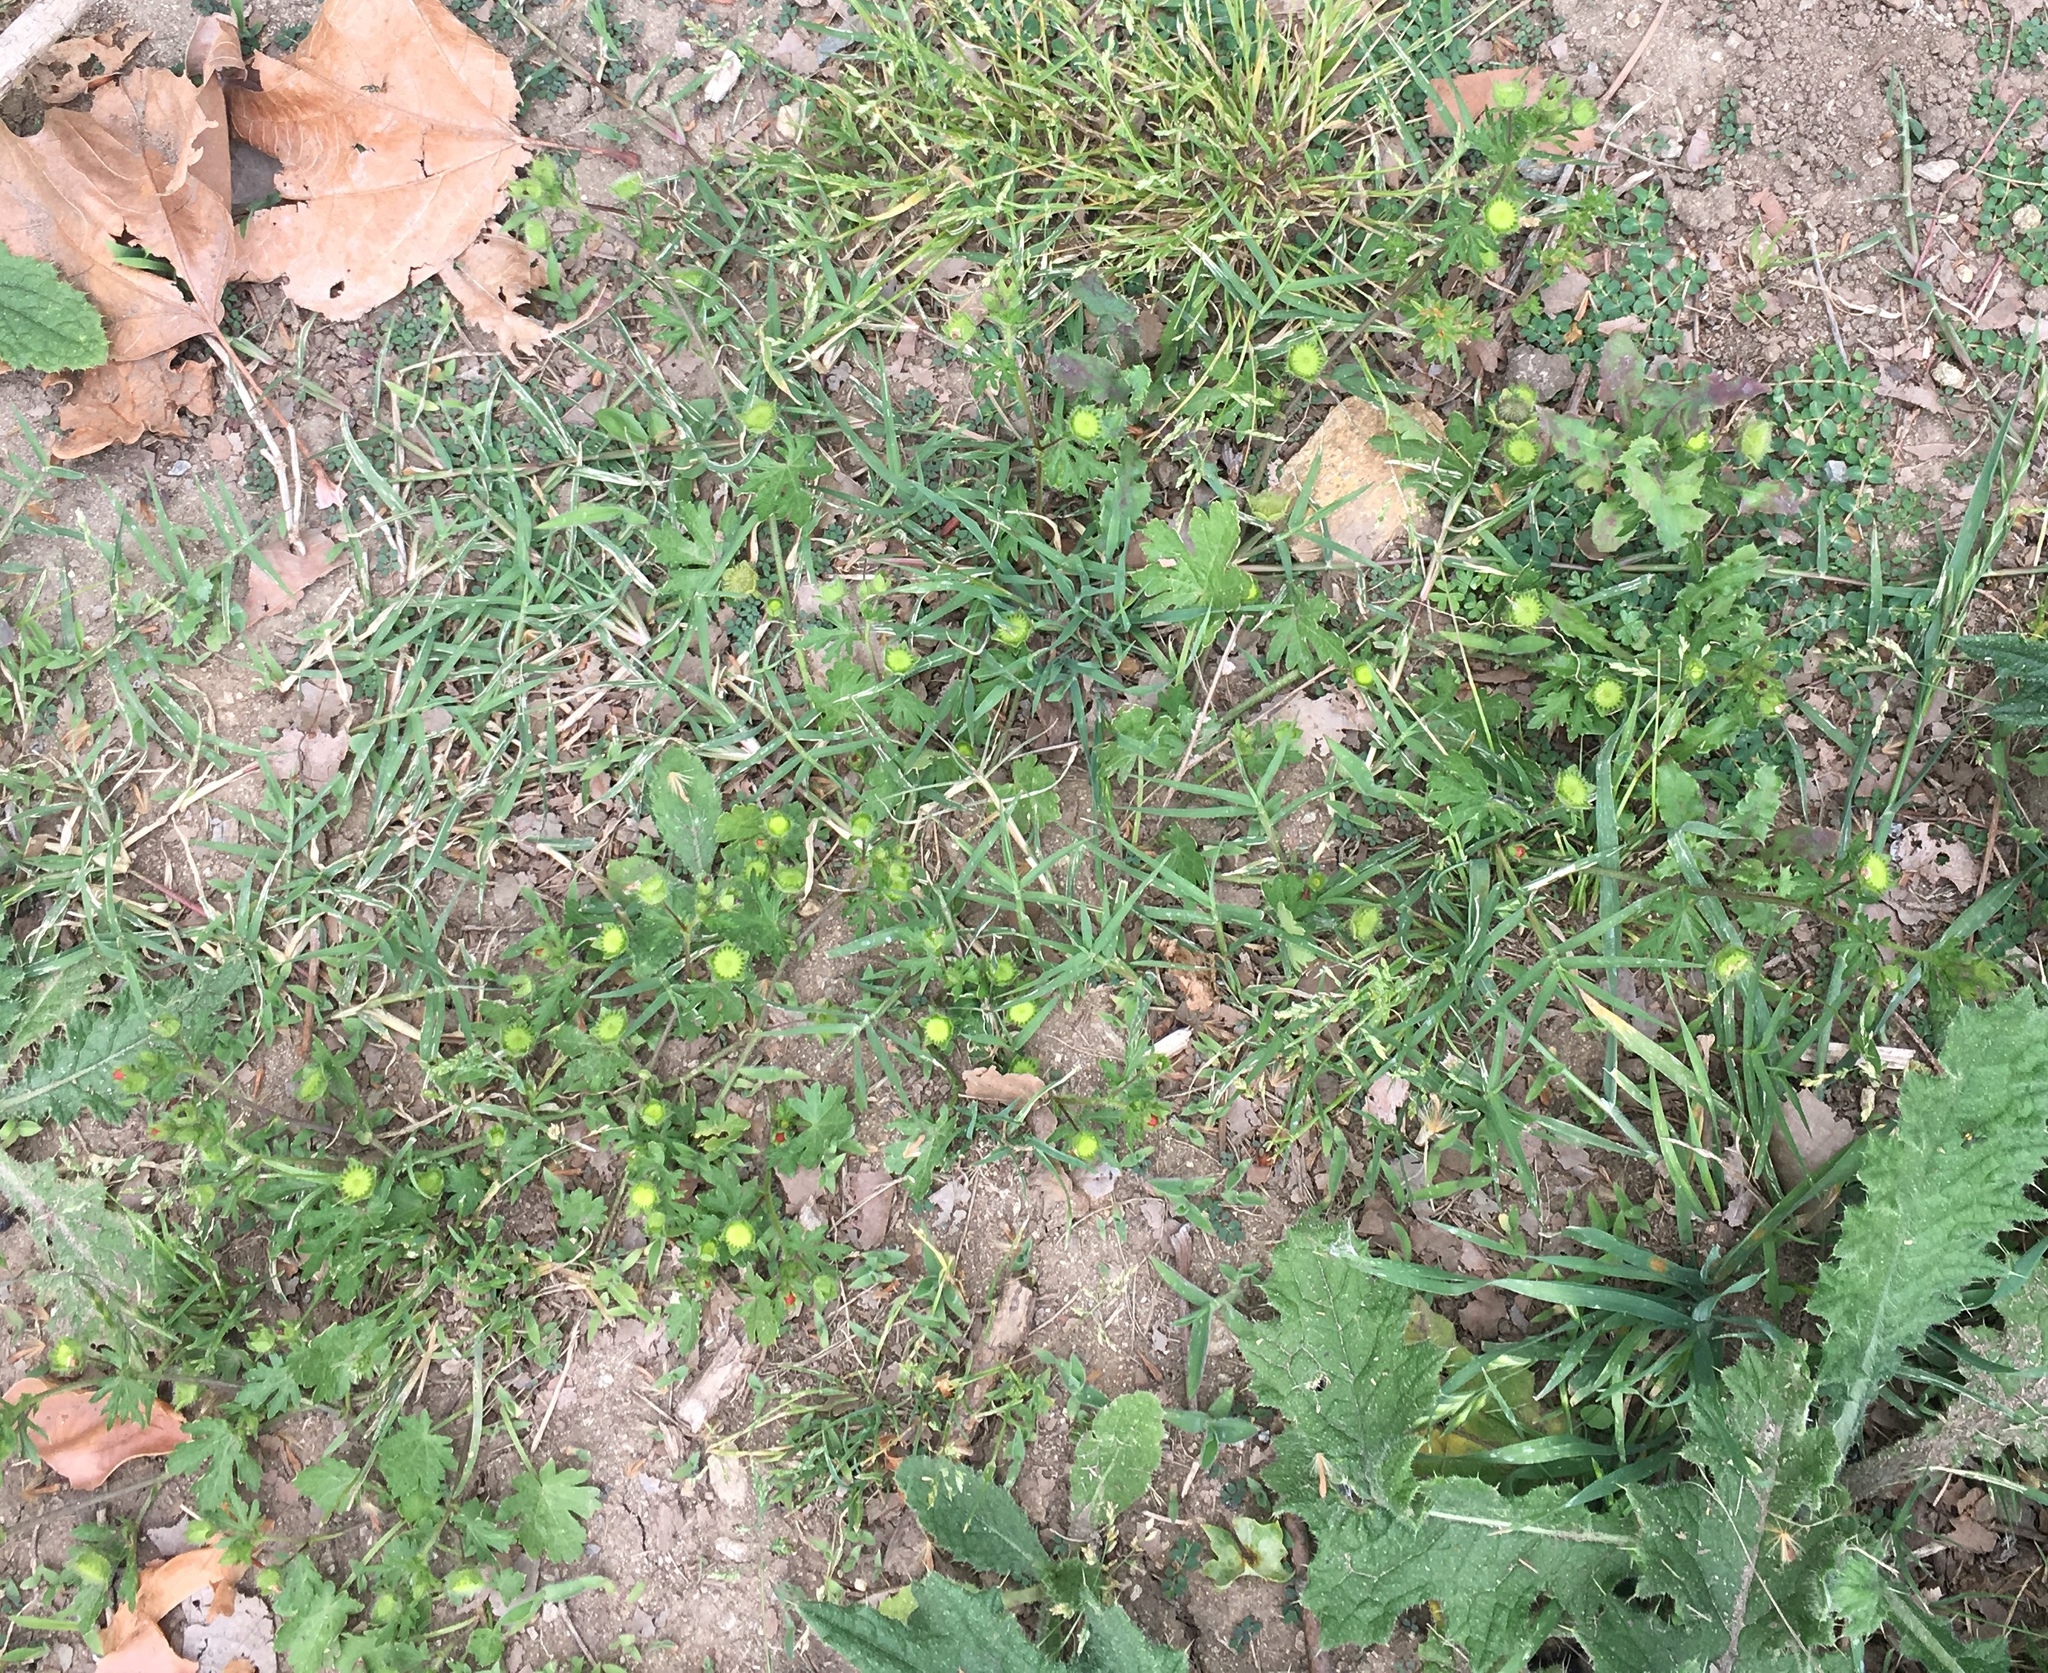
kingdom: Plantae
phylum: Tracheophyta
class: Magnoliopsida
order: Malvales
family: Malvaceae
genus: Modiola
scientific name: Modiola caroliniana
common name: Carolina bristlemallow
